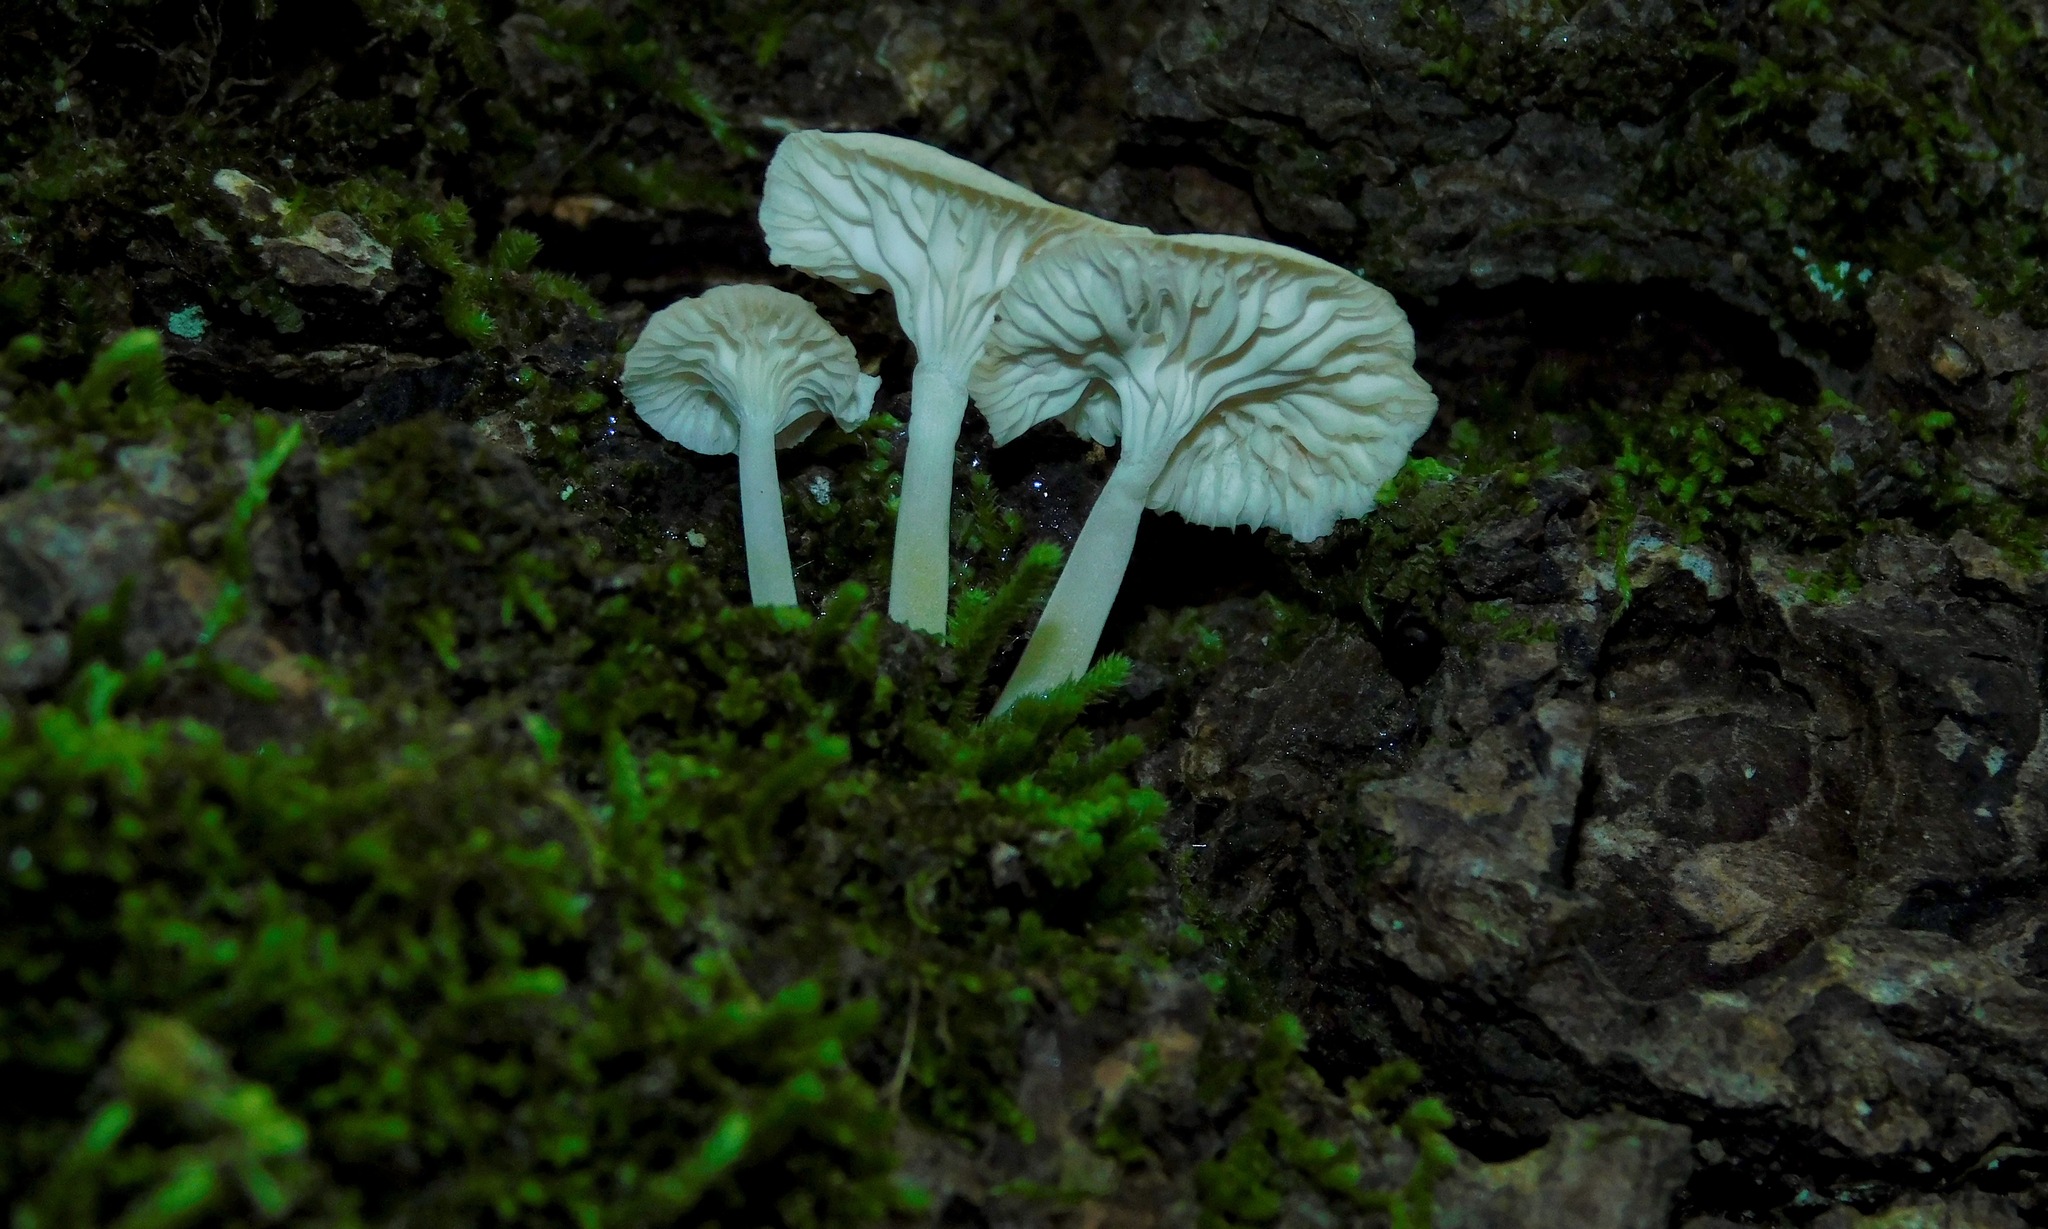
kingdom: Fungi
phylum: Basidiomycota
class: Agaricomycetes
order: Agaricales
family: Marasmiaceae
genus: Gerronema
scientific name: Gerronema subclavatum
